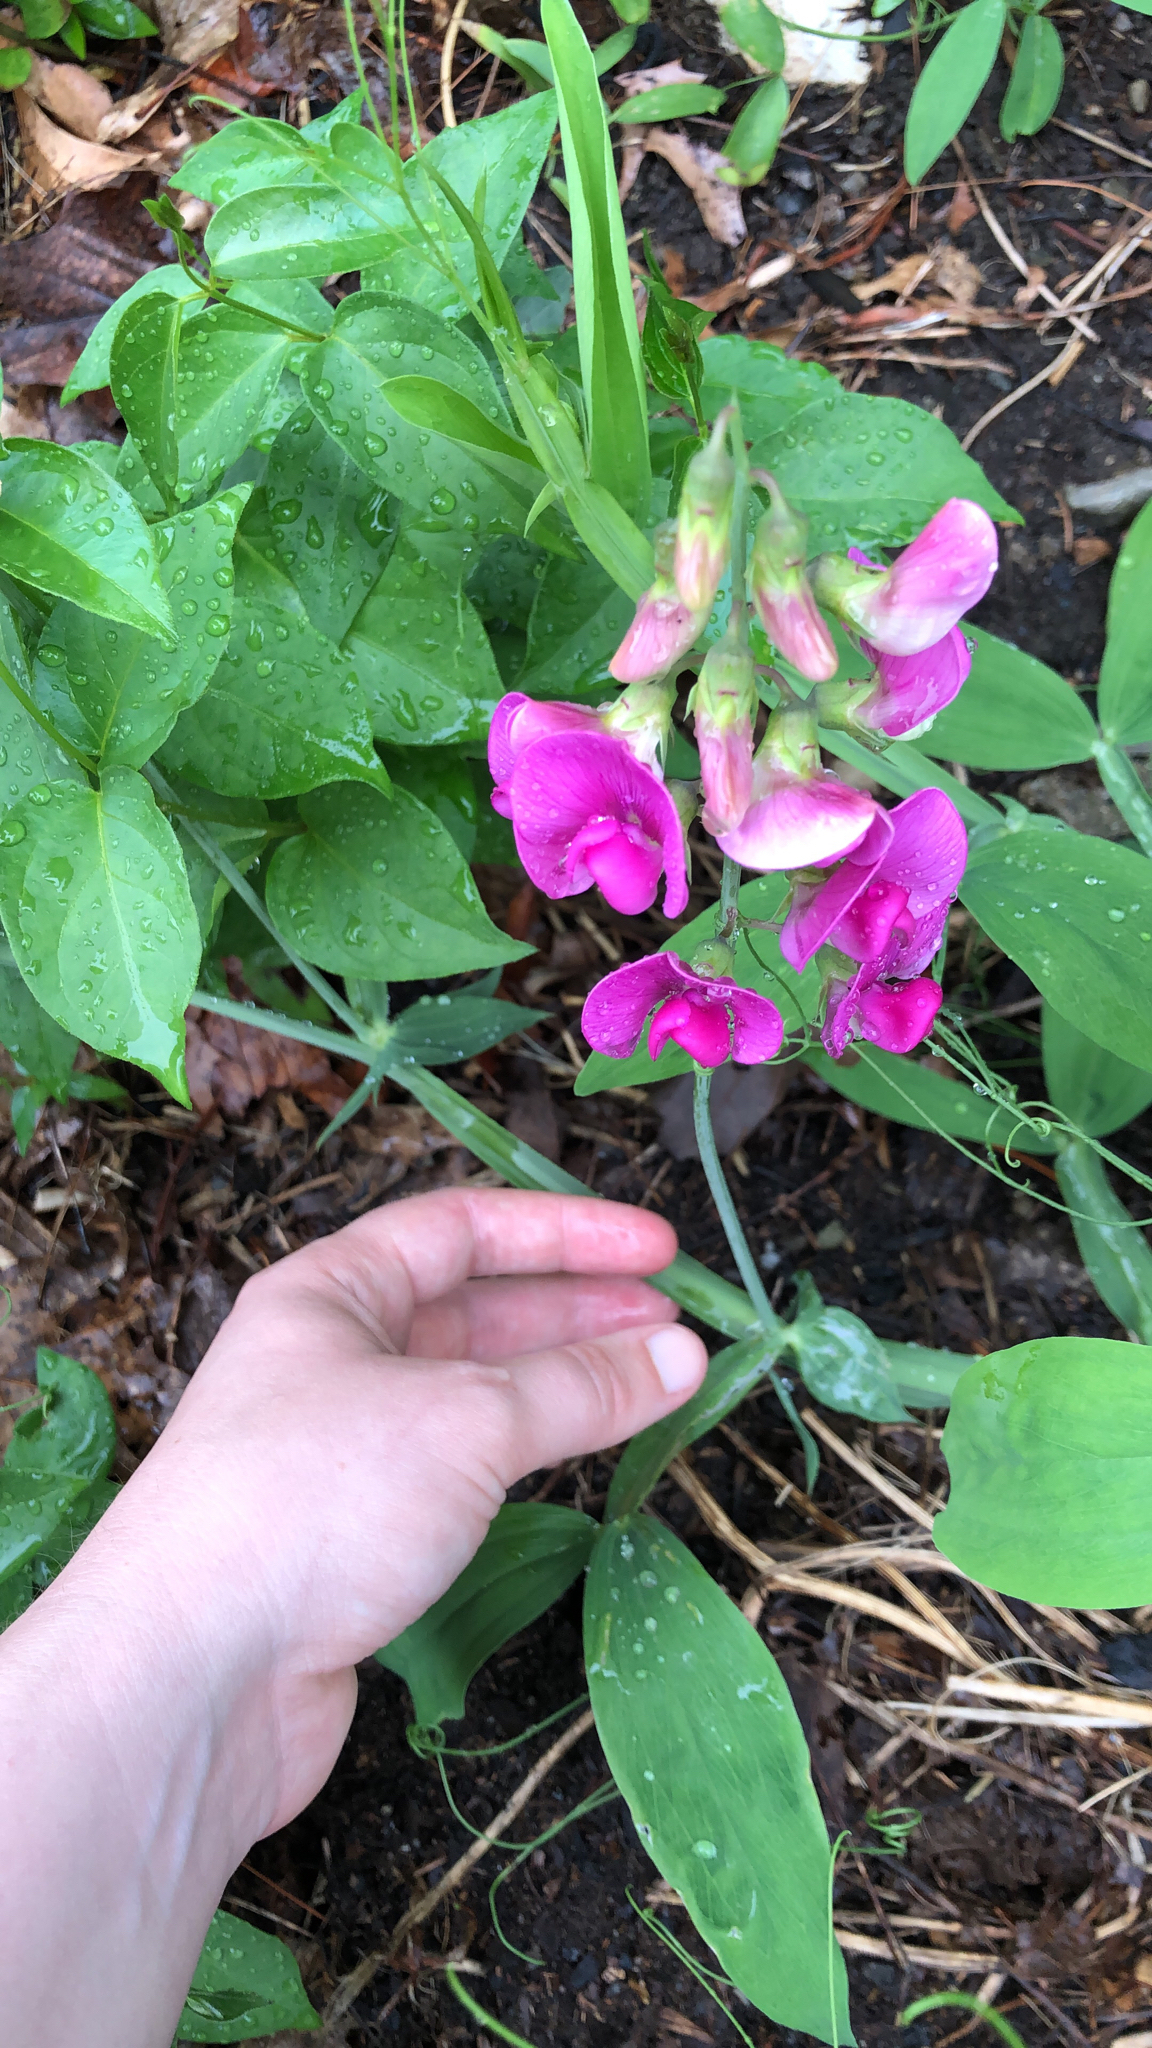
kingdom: Plantae
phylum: Tracheophyta
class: Magnoliopsida
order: Fabales
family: Fabaceae
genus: Lathyrus
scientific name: Lathyrus latifolius
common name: Perennial pea
